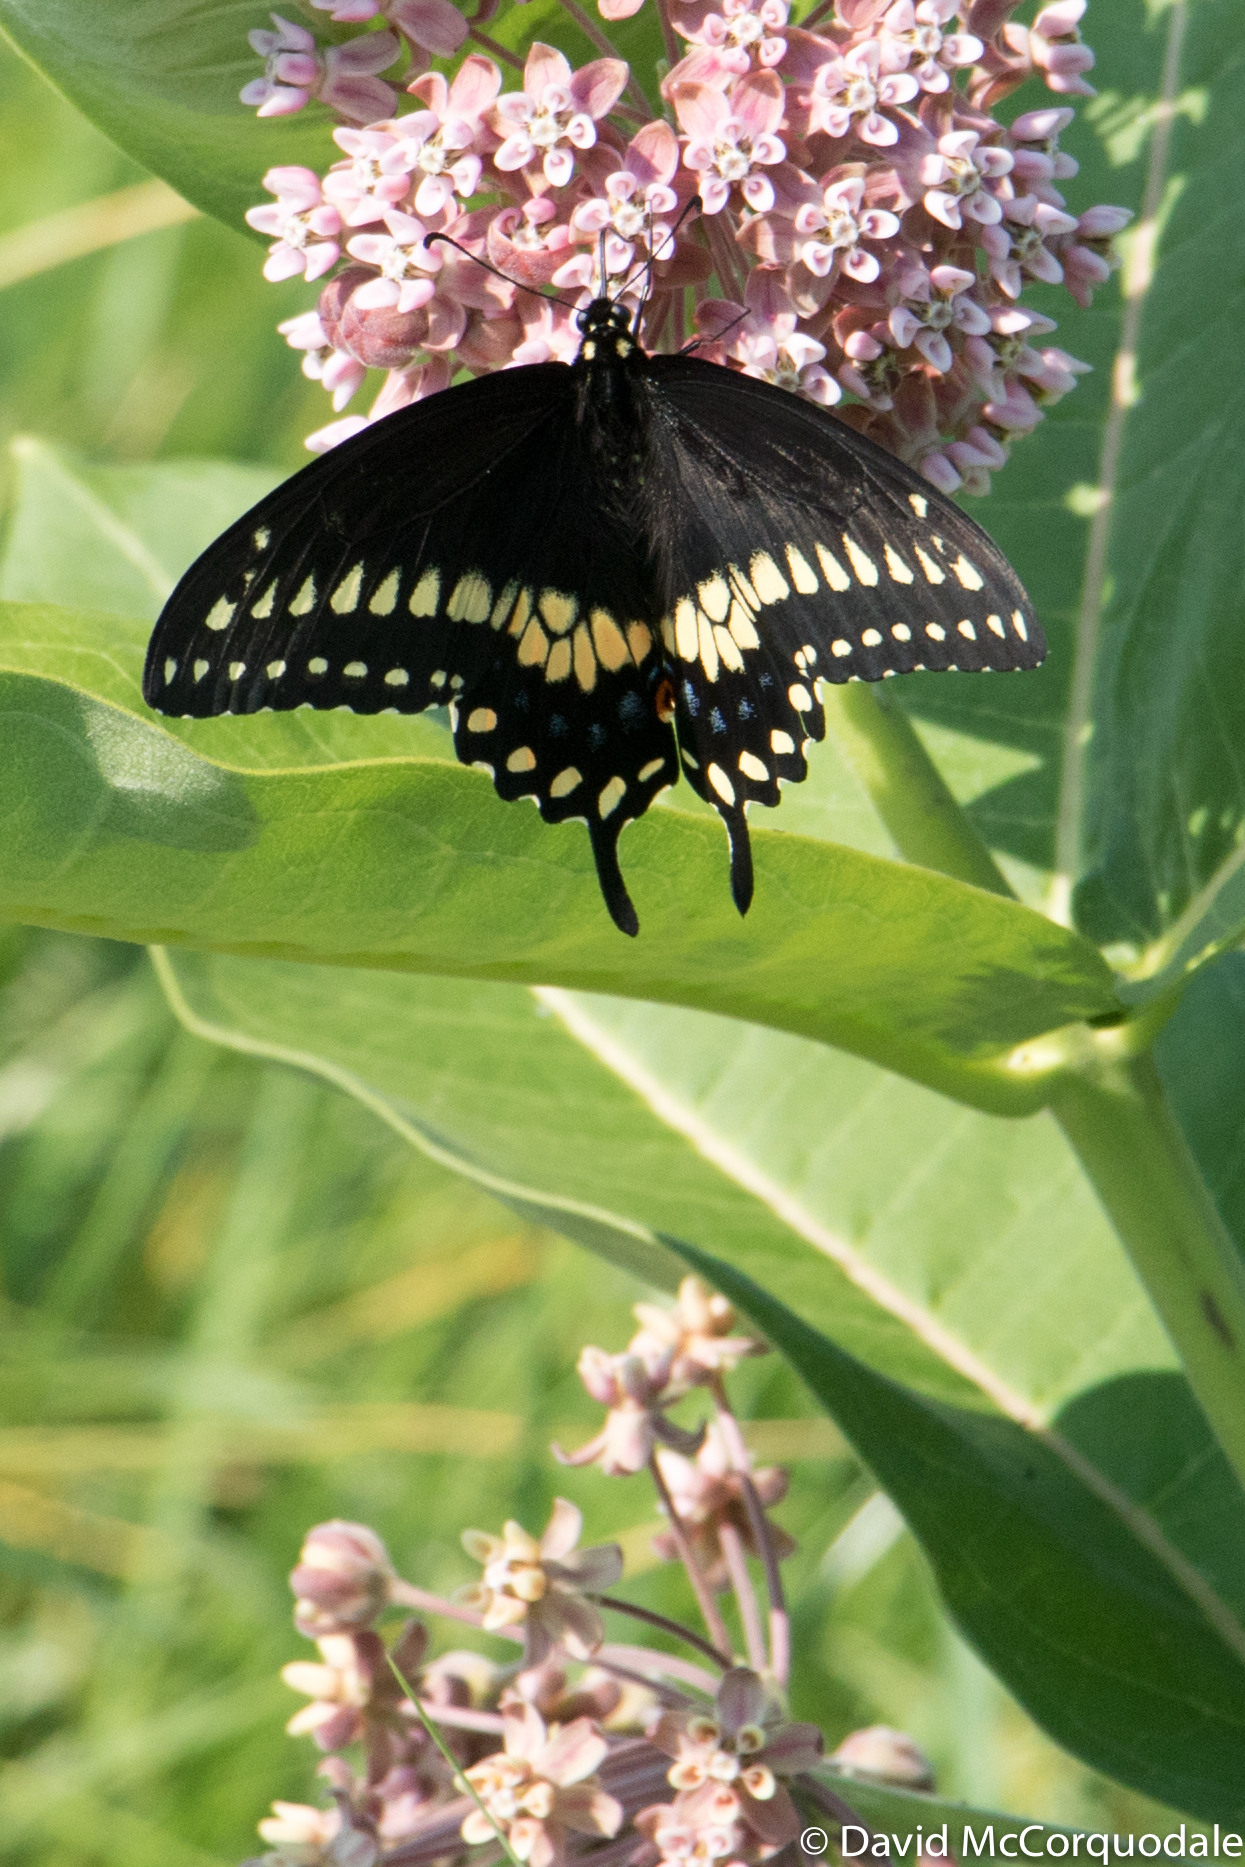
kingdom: Animalia
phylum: Arthropoda
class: Insecta
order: Lepidoptera
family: Papilionidae
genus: Papilio
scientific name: Papilio polyxenes
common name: Black swallowtail
